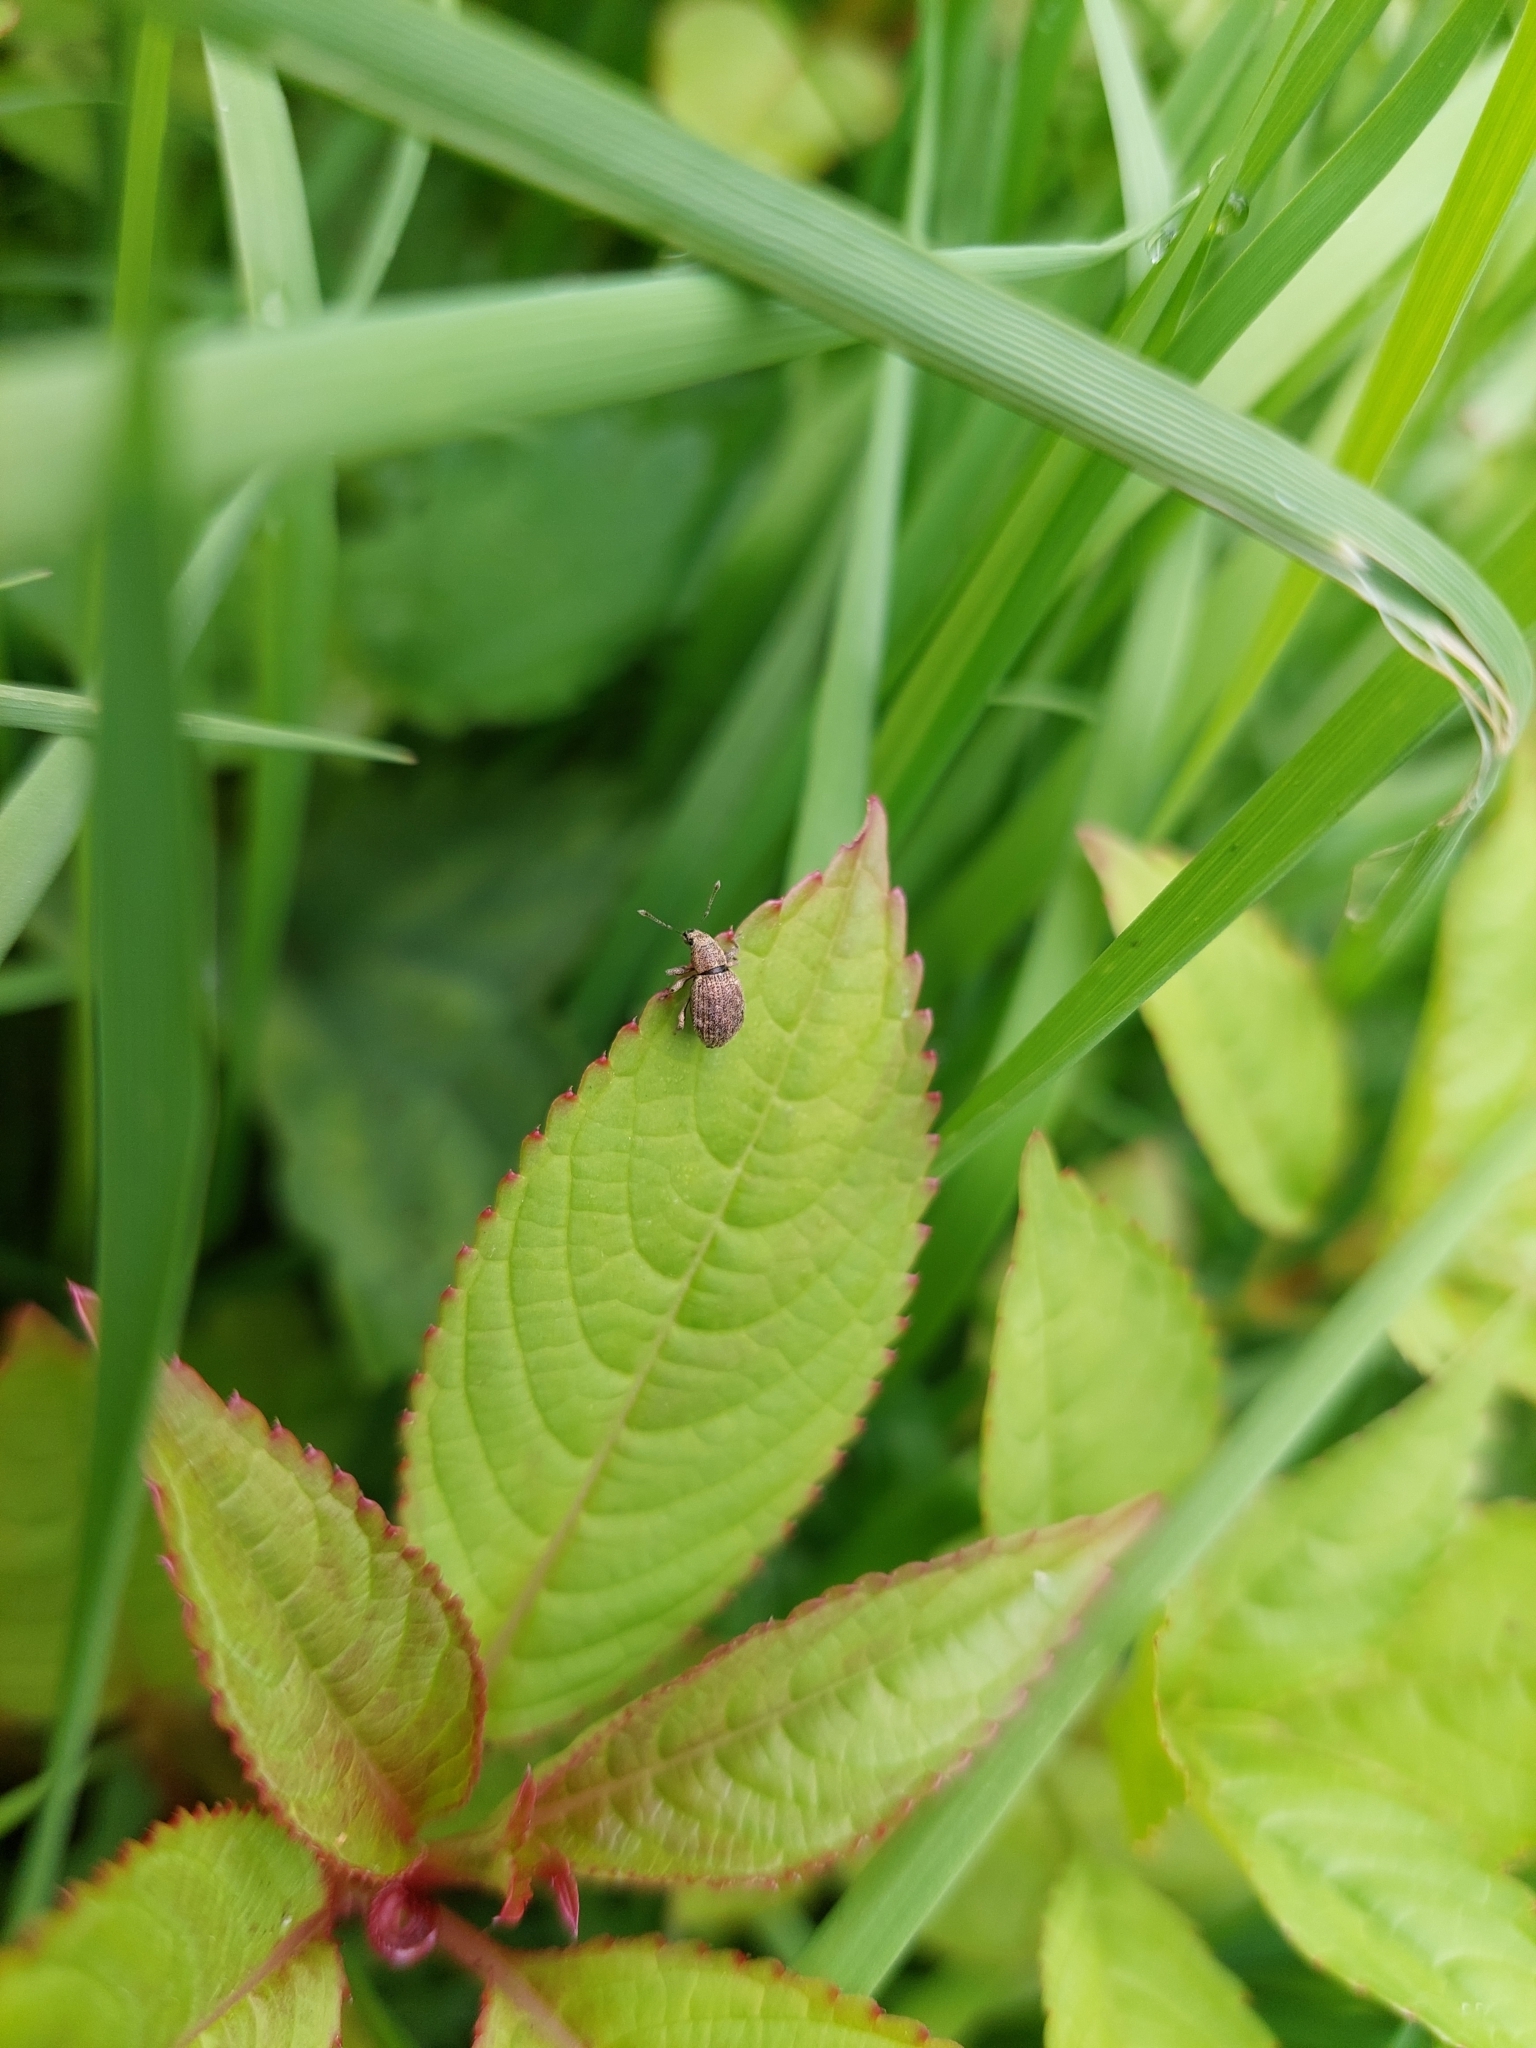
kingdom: Animalia
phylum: Arthropoda
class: Insecta
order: Coleoptera
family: Curculionidae
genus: Sciaphilus
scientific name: Sciaphilus asperatus
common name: Weevil
